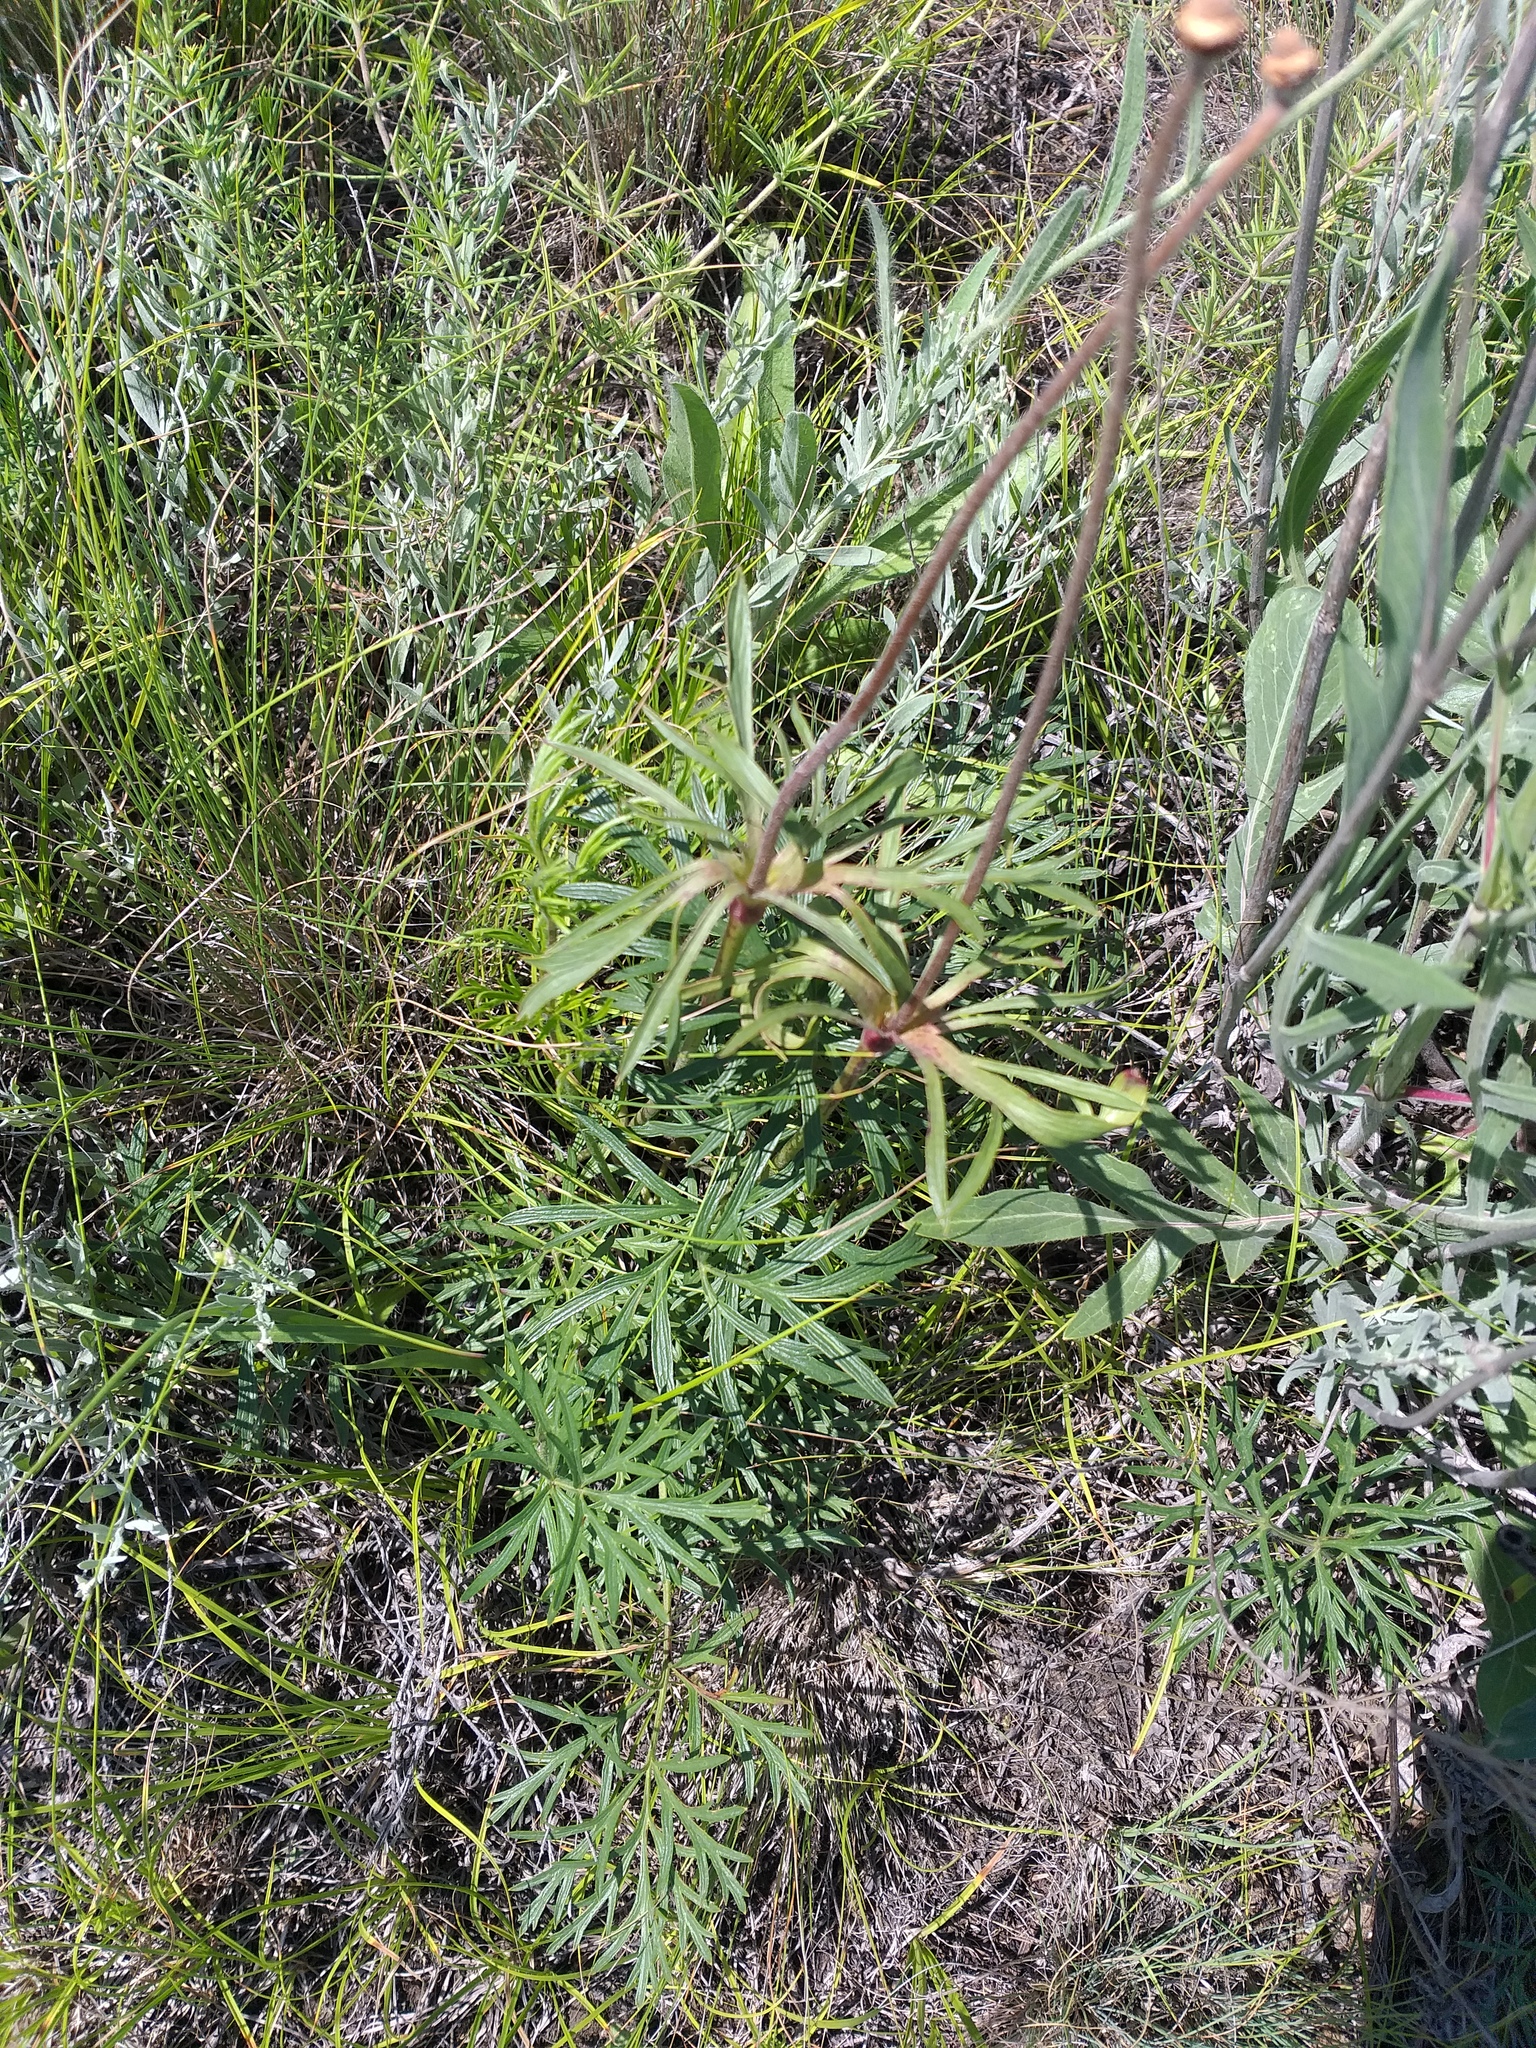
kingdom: Plantae
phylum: Tracheophyta
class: Magnoliopsida
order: Ranunculales
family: Ranunculaceae
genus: Pulsatilla
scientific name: Pulsatilla pratensis
